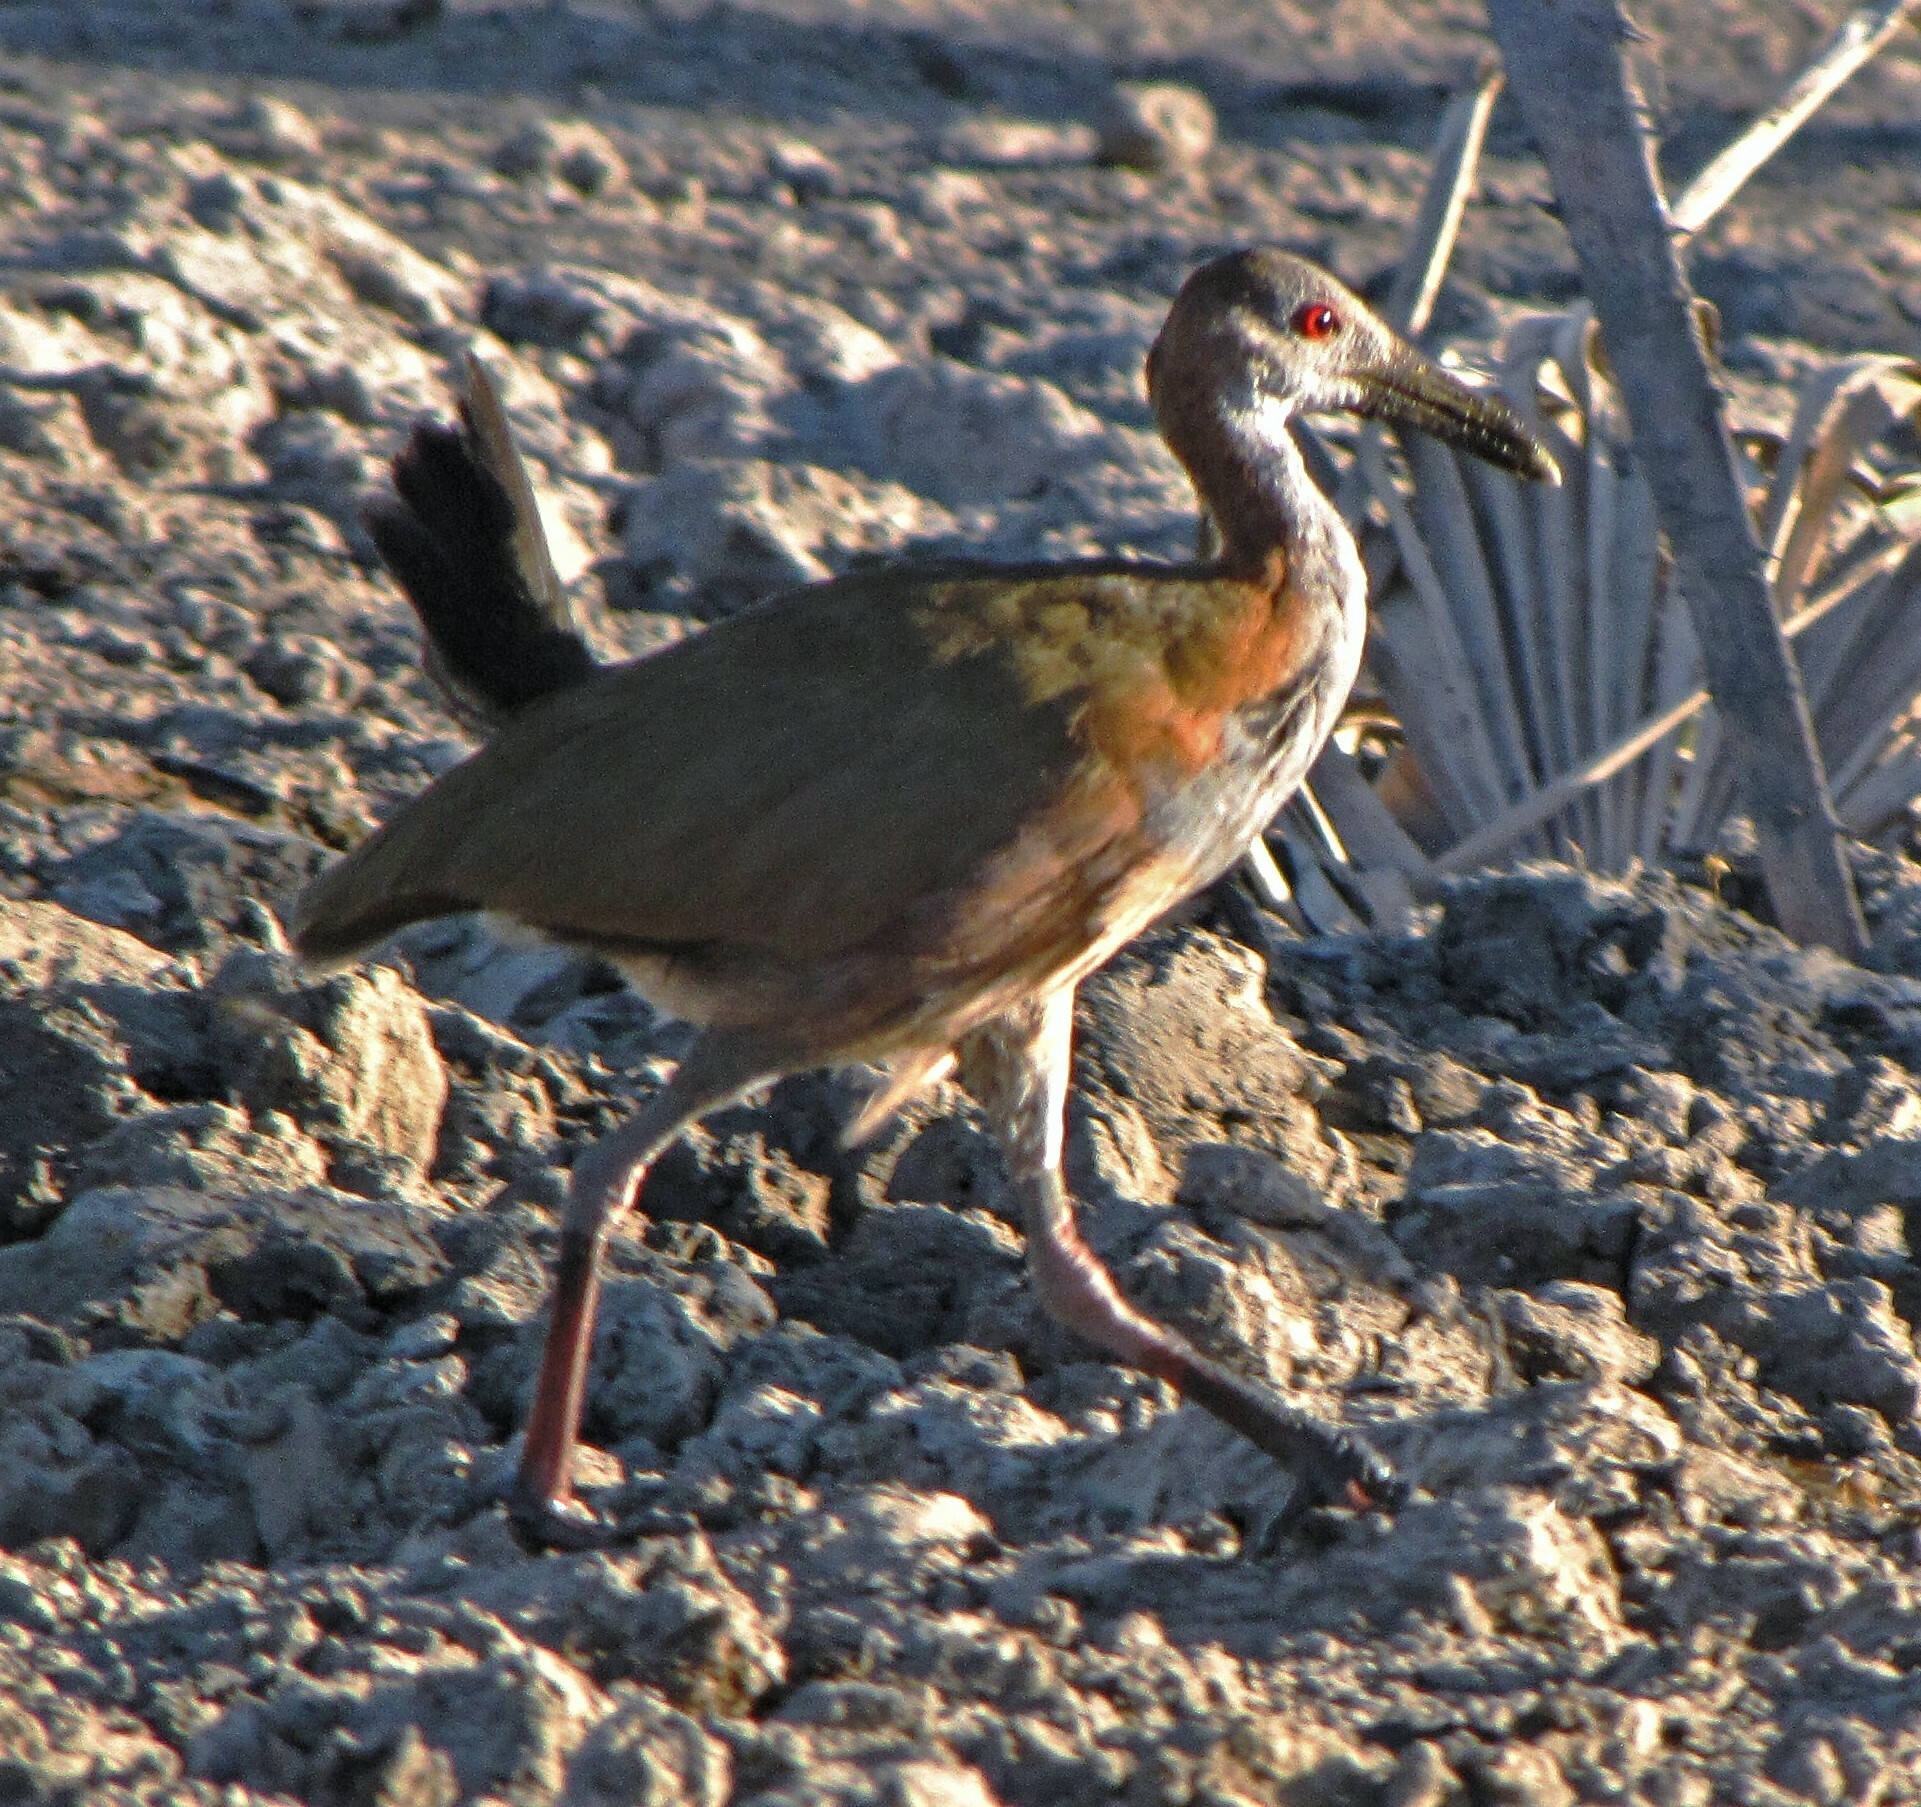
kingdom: Animalia
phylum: Chordata
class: Aves
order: Gruiformes
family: Rallidae
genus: Aramides
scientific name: Aramides ypecaha
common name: Giant wood rail
